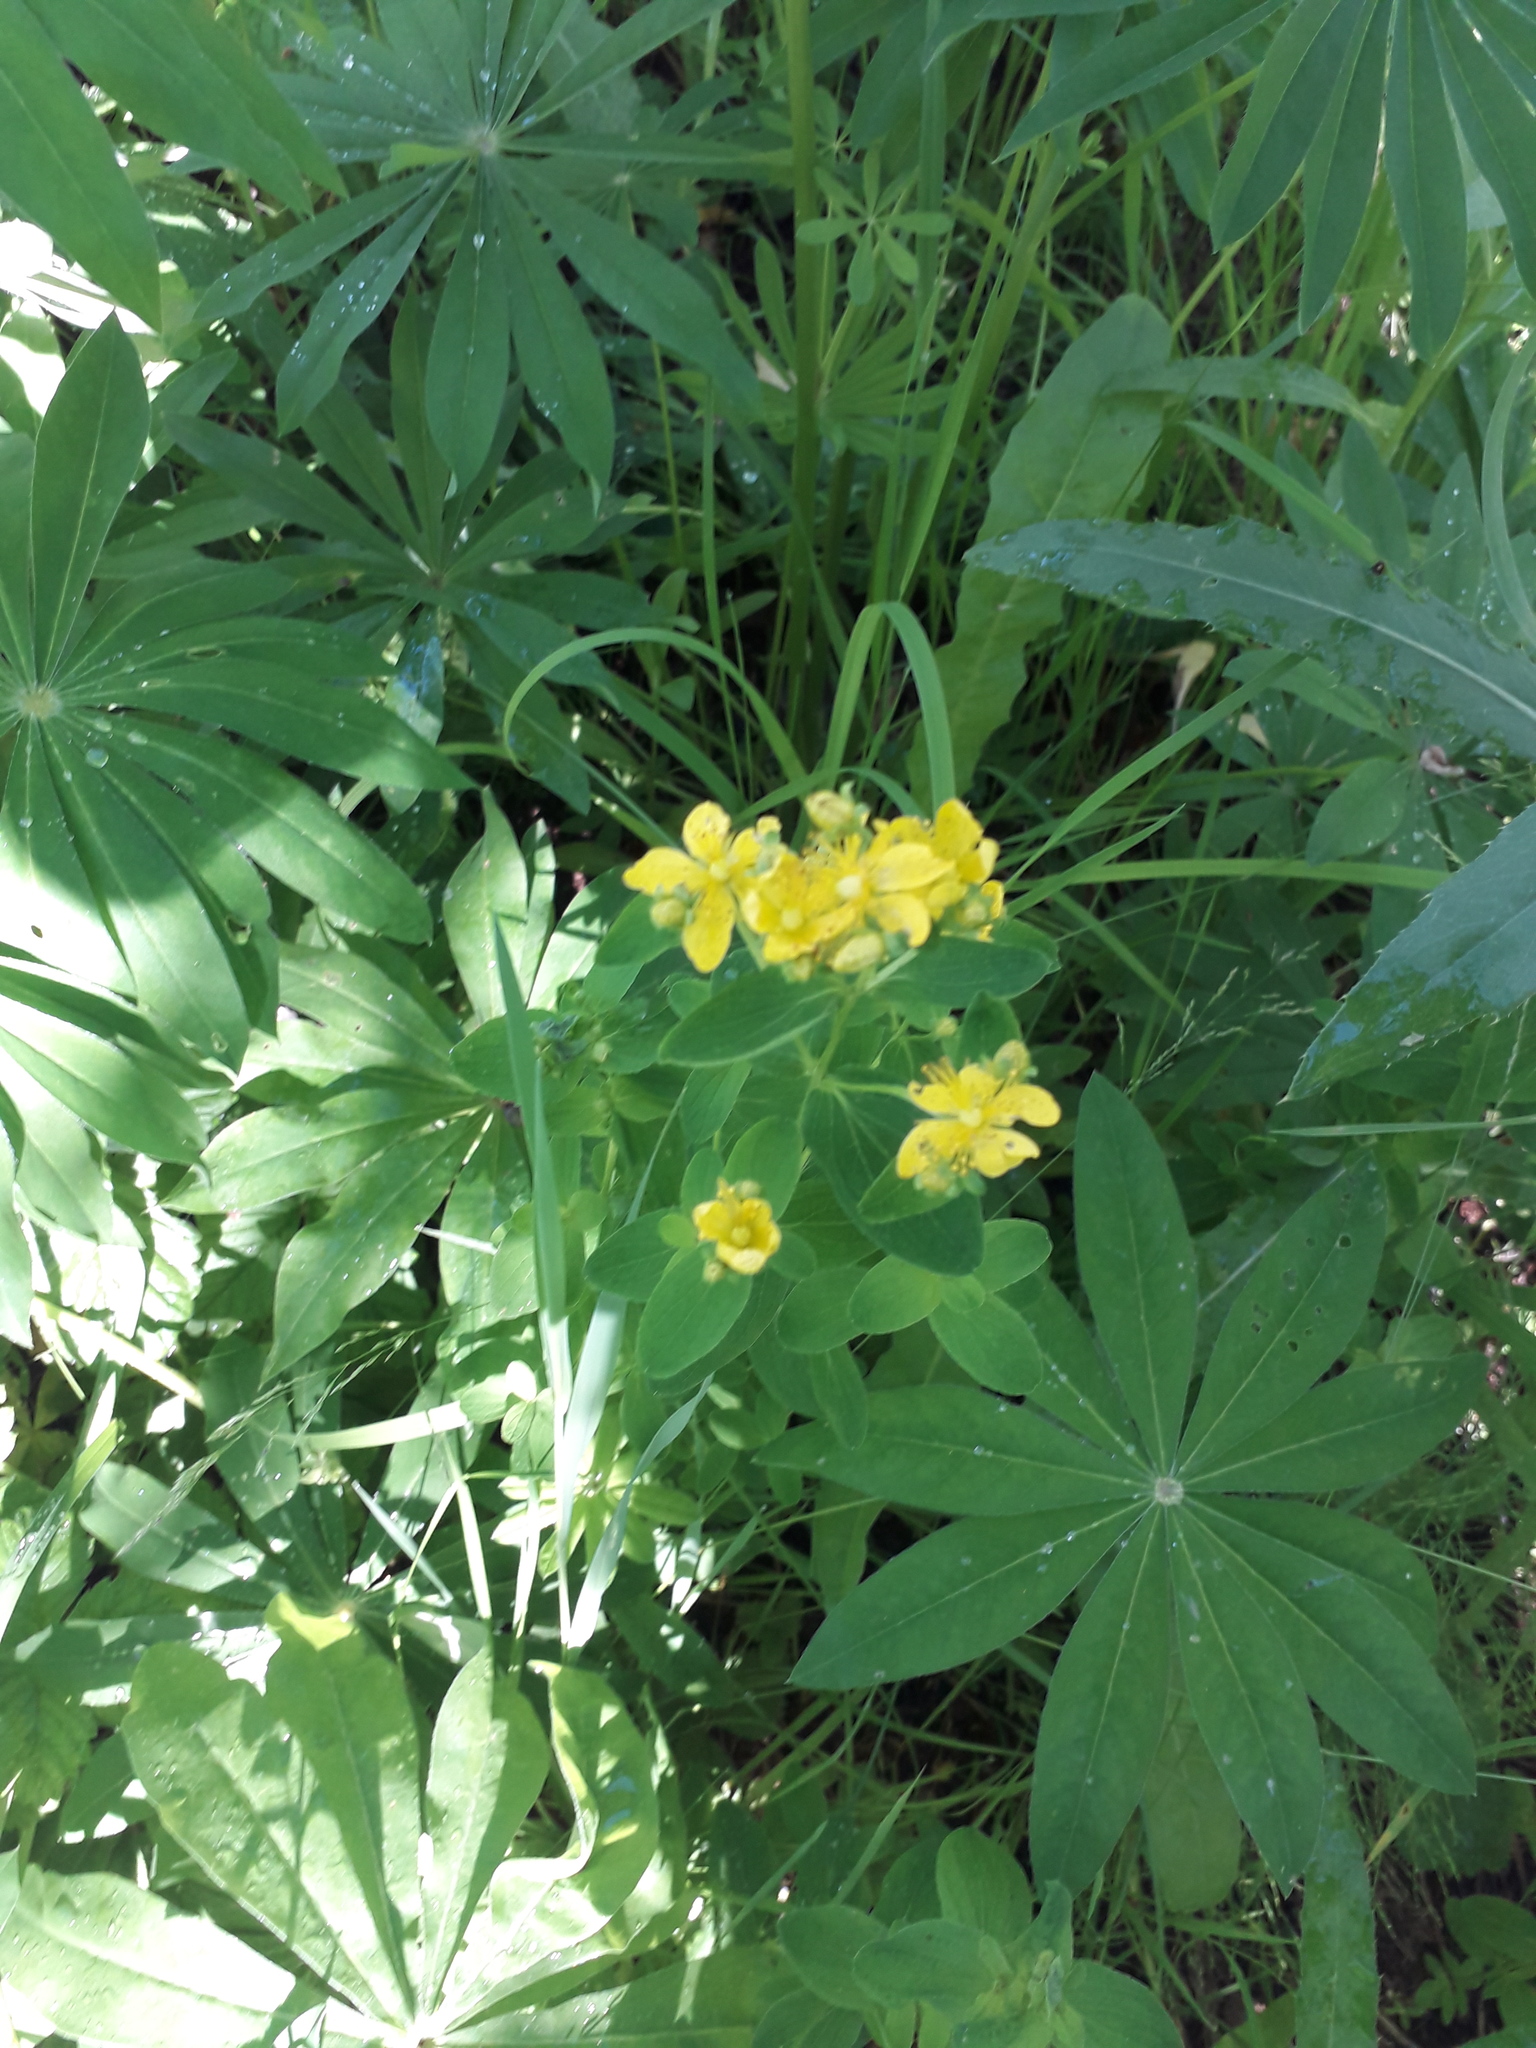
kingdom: Plantae
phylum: Tracheophyta
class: Magnoliopsida
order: Malpighiales
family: Hypericaceae
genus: Hypericum
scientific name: Hypericum maculatum
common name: Imperforate st. john's-wort
